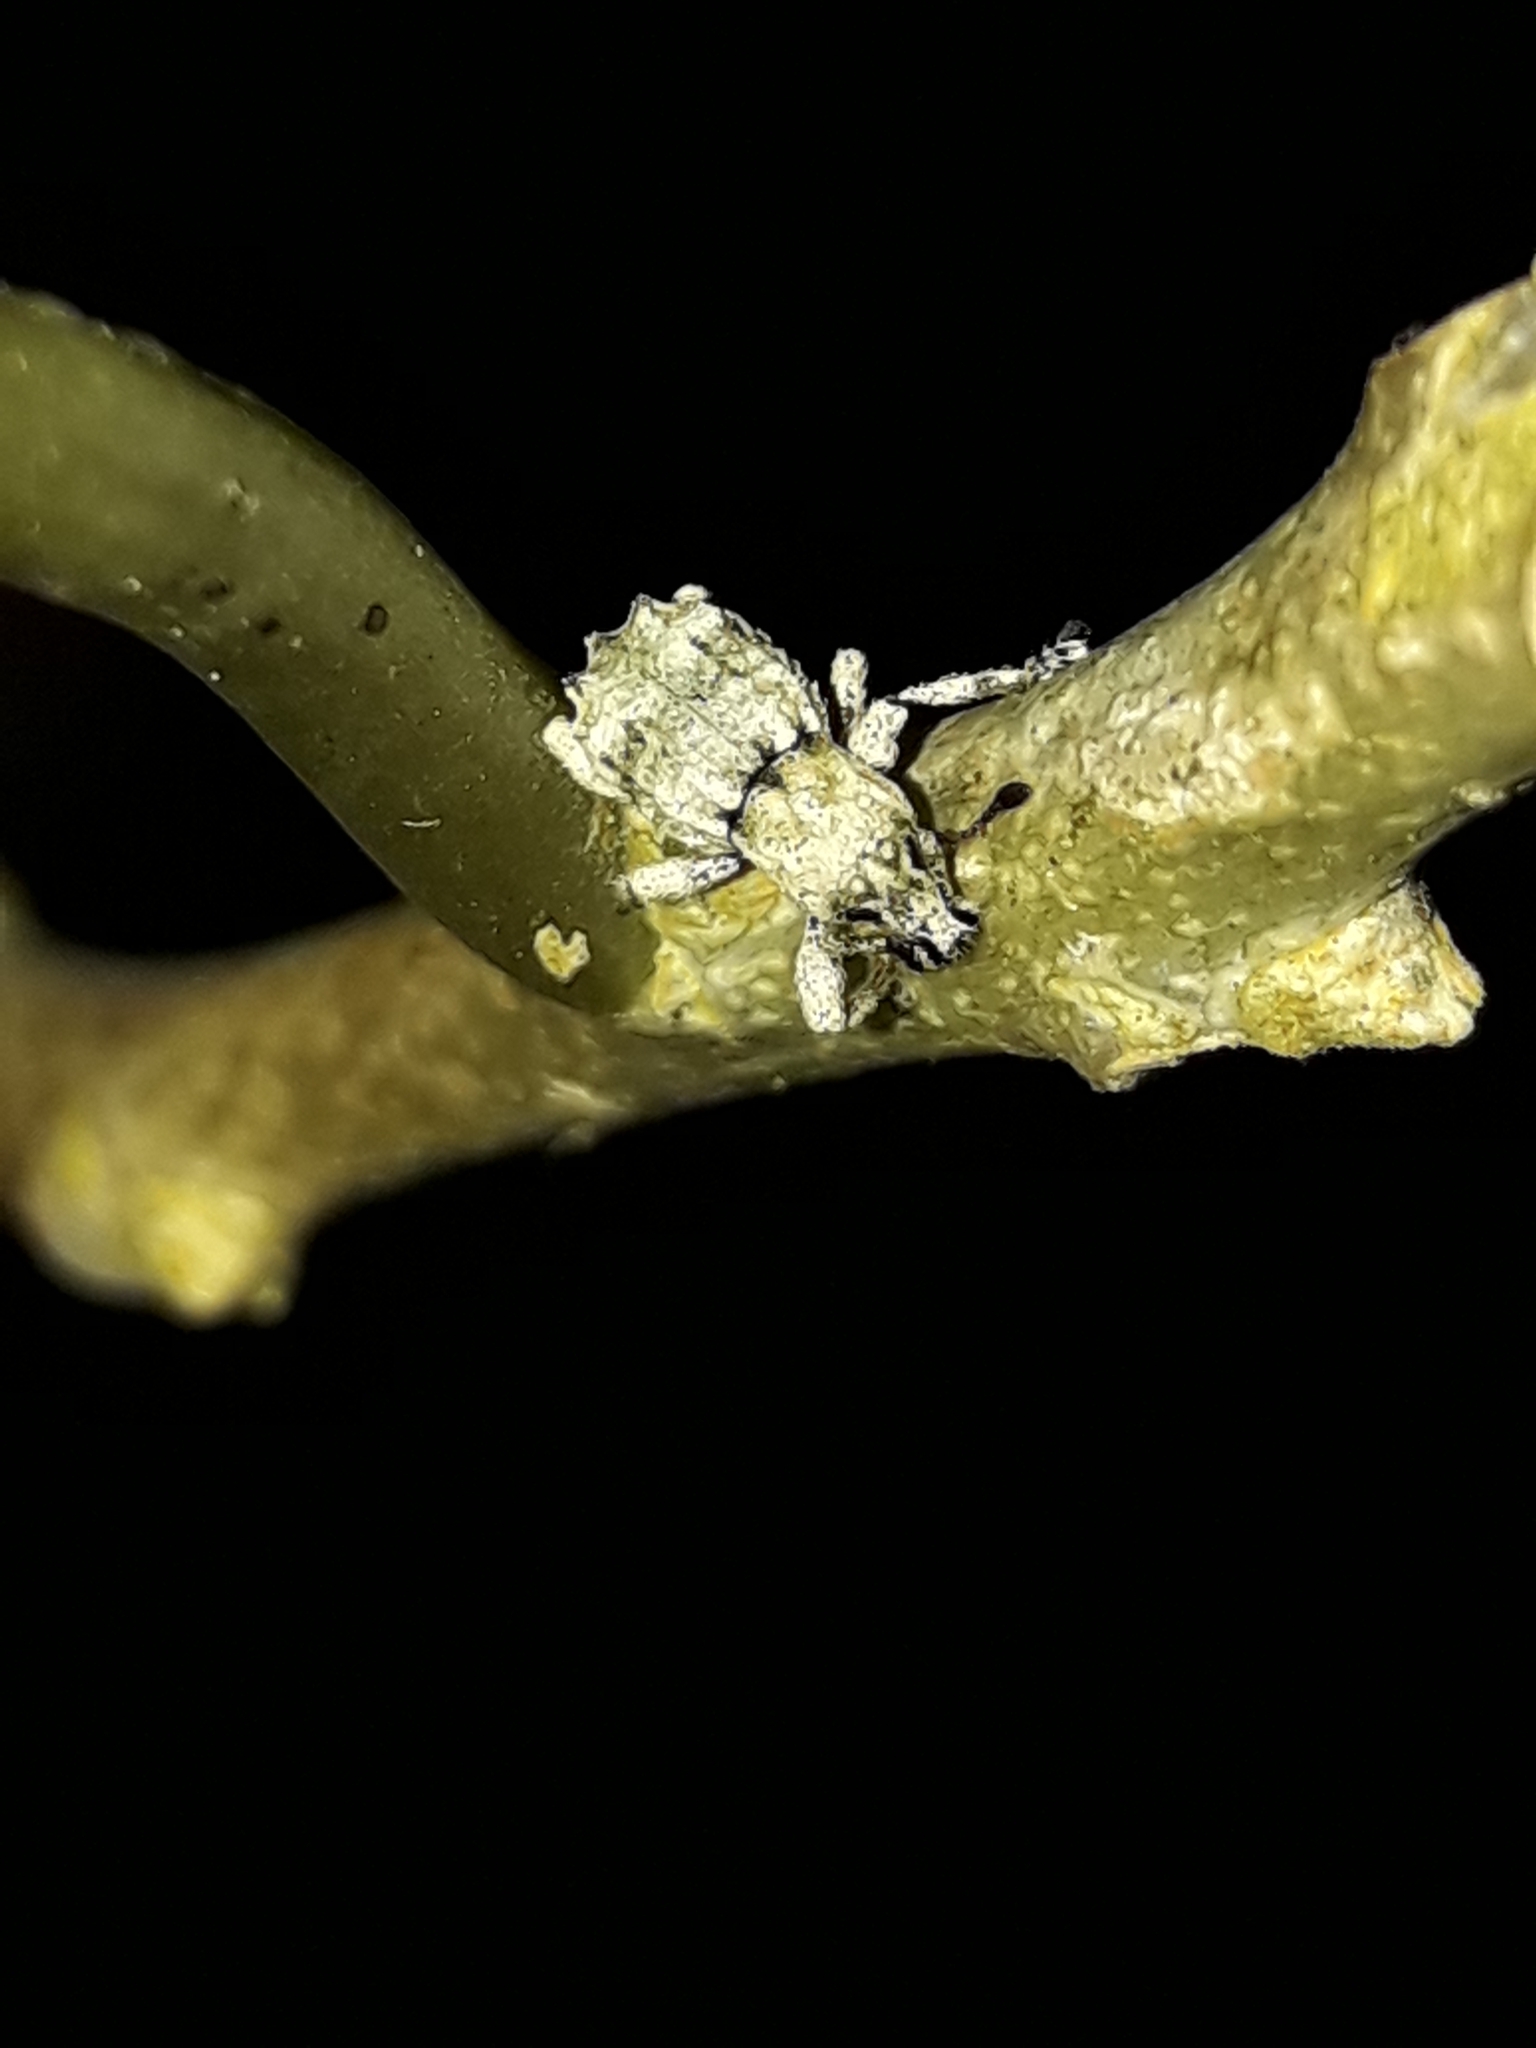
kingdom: Animalia
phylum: Arthropoda
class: Insecta
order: Coleoptera
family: Curculionidae
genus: Brachyolus
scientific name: Brachyolus punctatus
